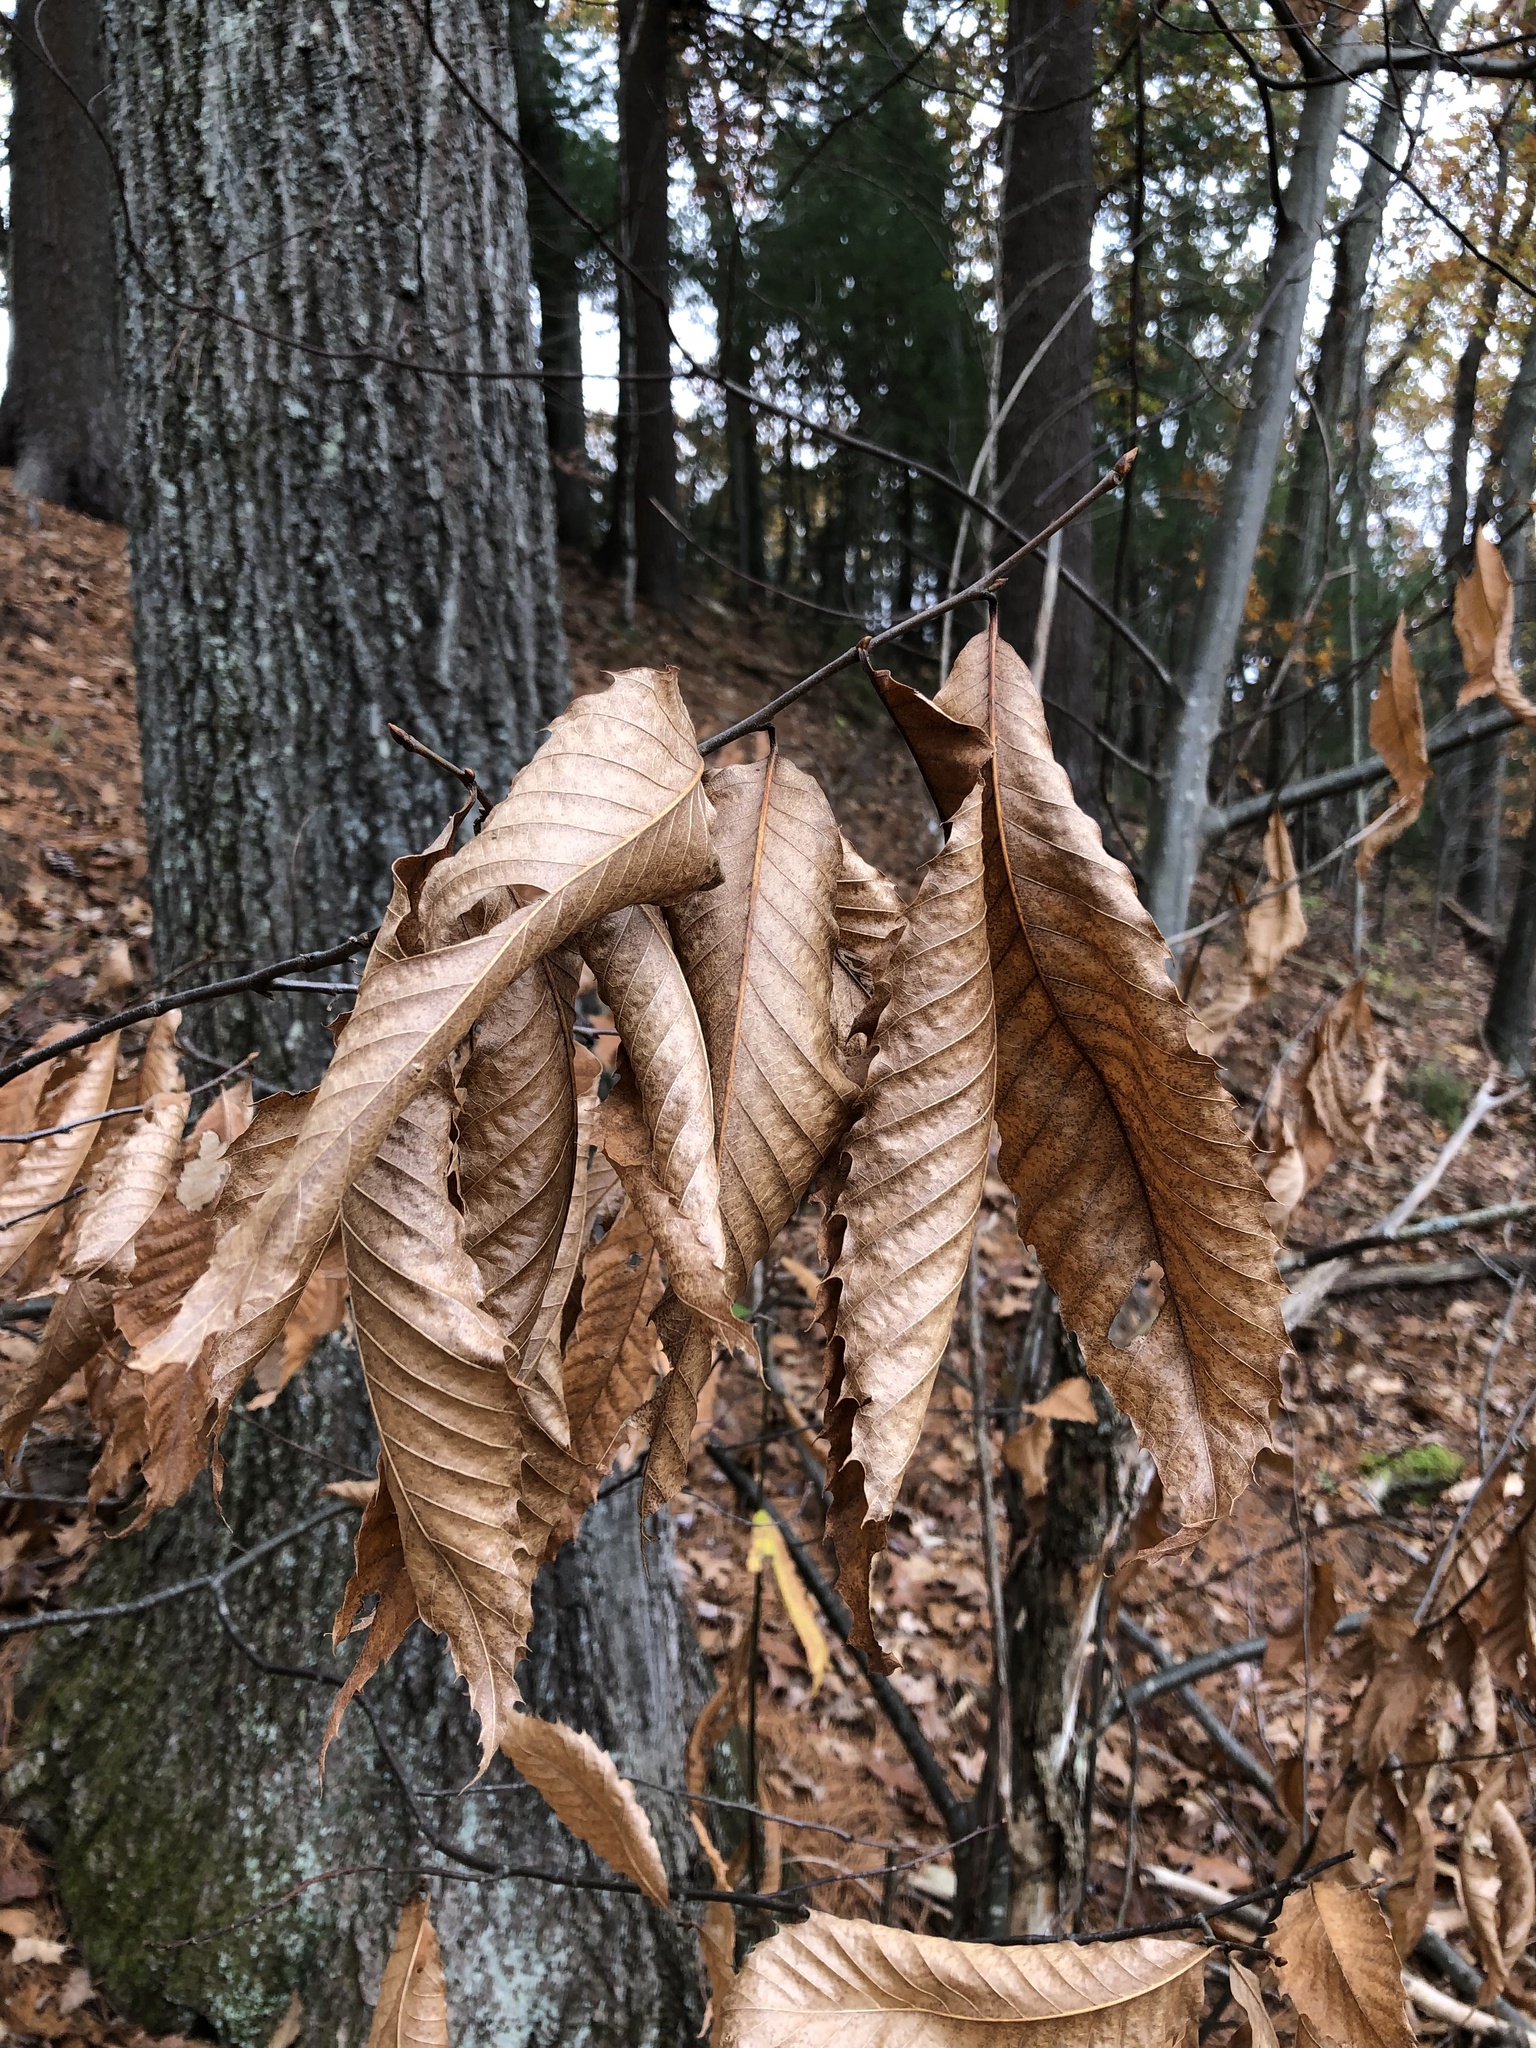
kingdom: Plantae
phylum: Tracheophyta
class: Magnoliopsida
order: Fagales
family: Fagaceae
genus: Castanea
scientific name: Castanea dentata
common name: American chestnut
